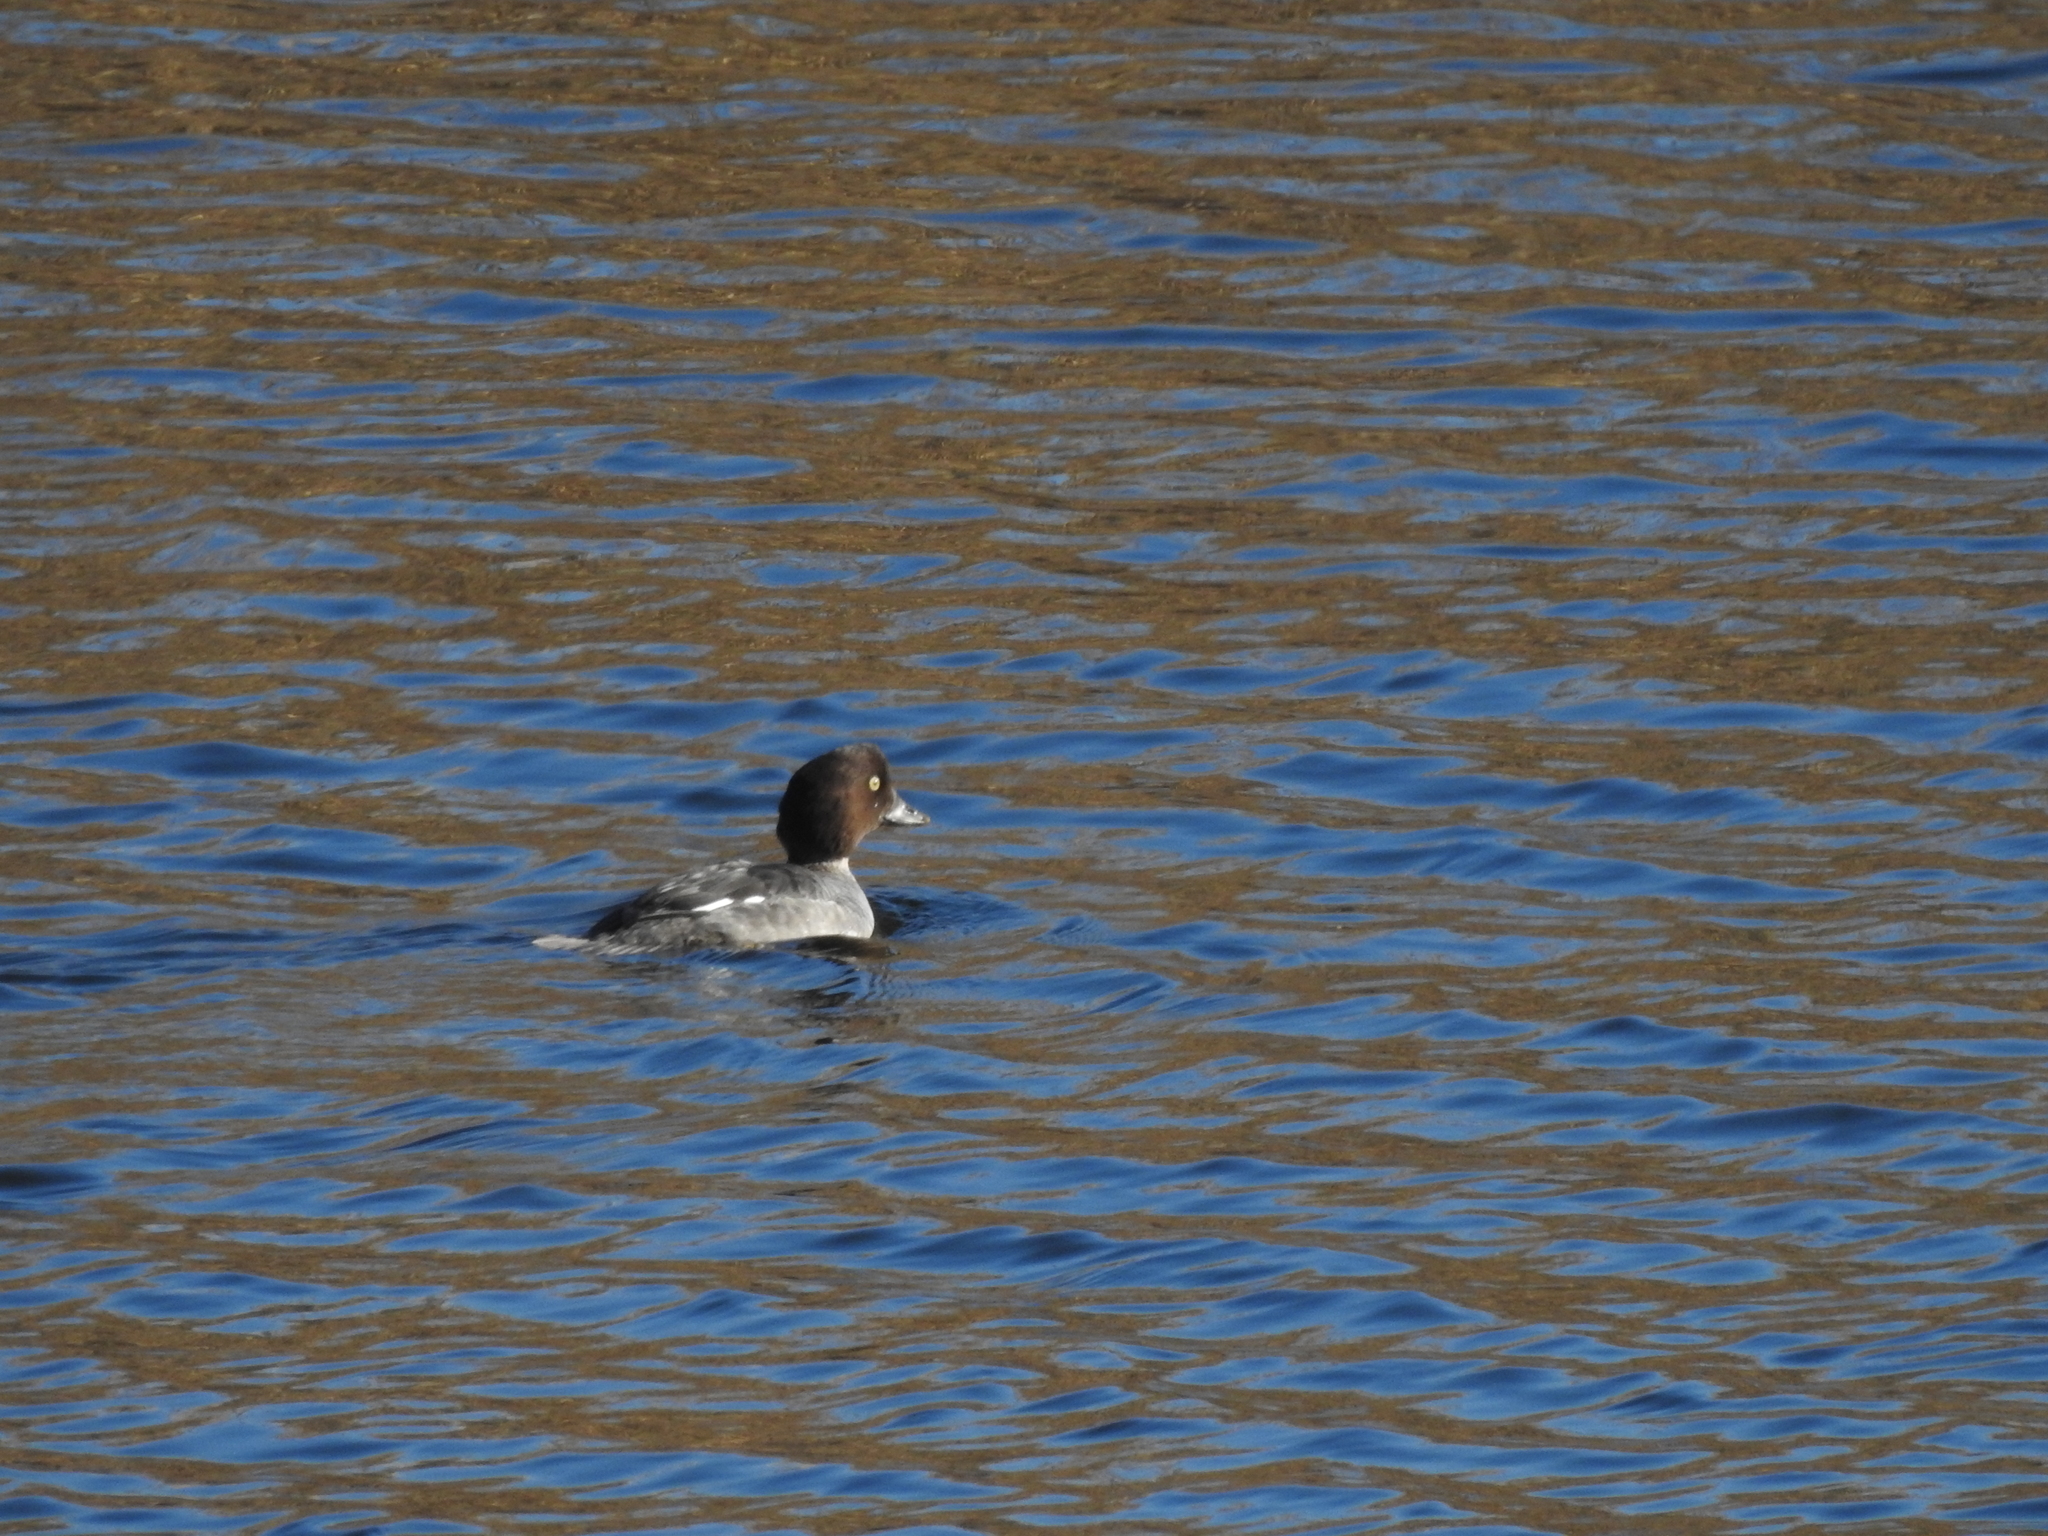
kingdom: Animalia
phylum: Chordata
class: Aves
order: Anseriformes
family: Anatidae
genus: Bucephala
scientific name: Bucephala clangula
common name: Common goldeneye
